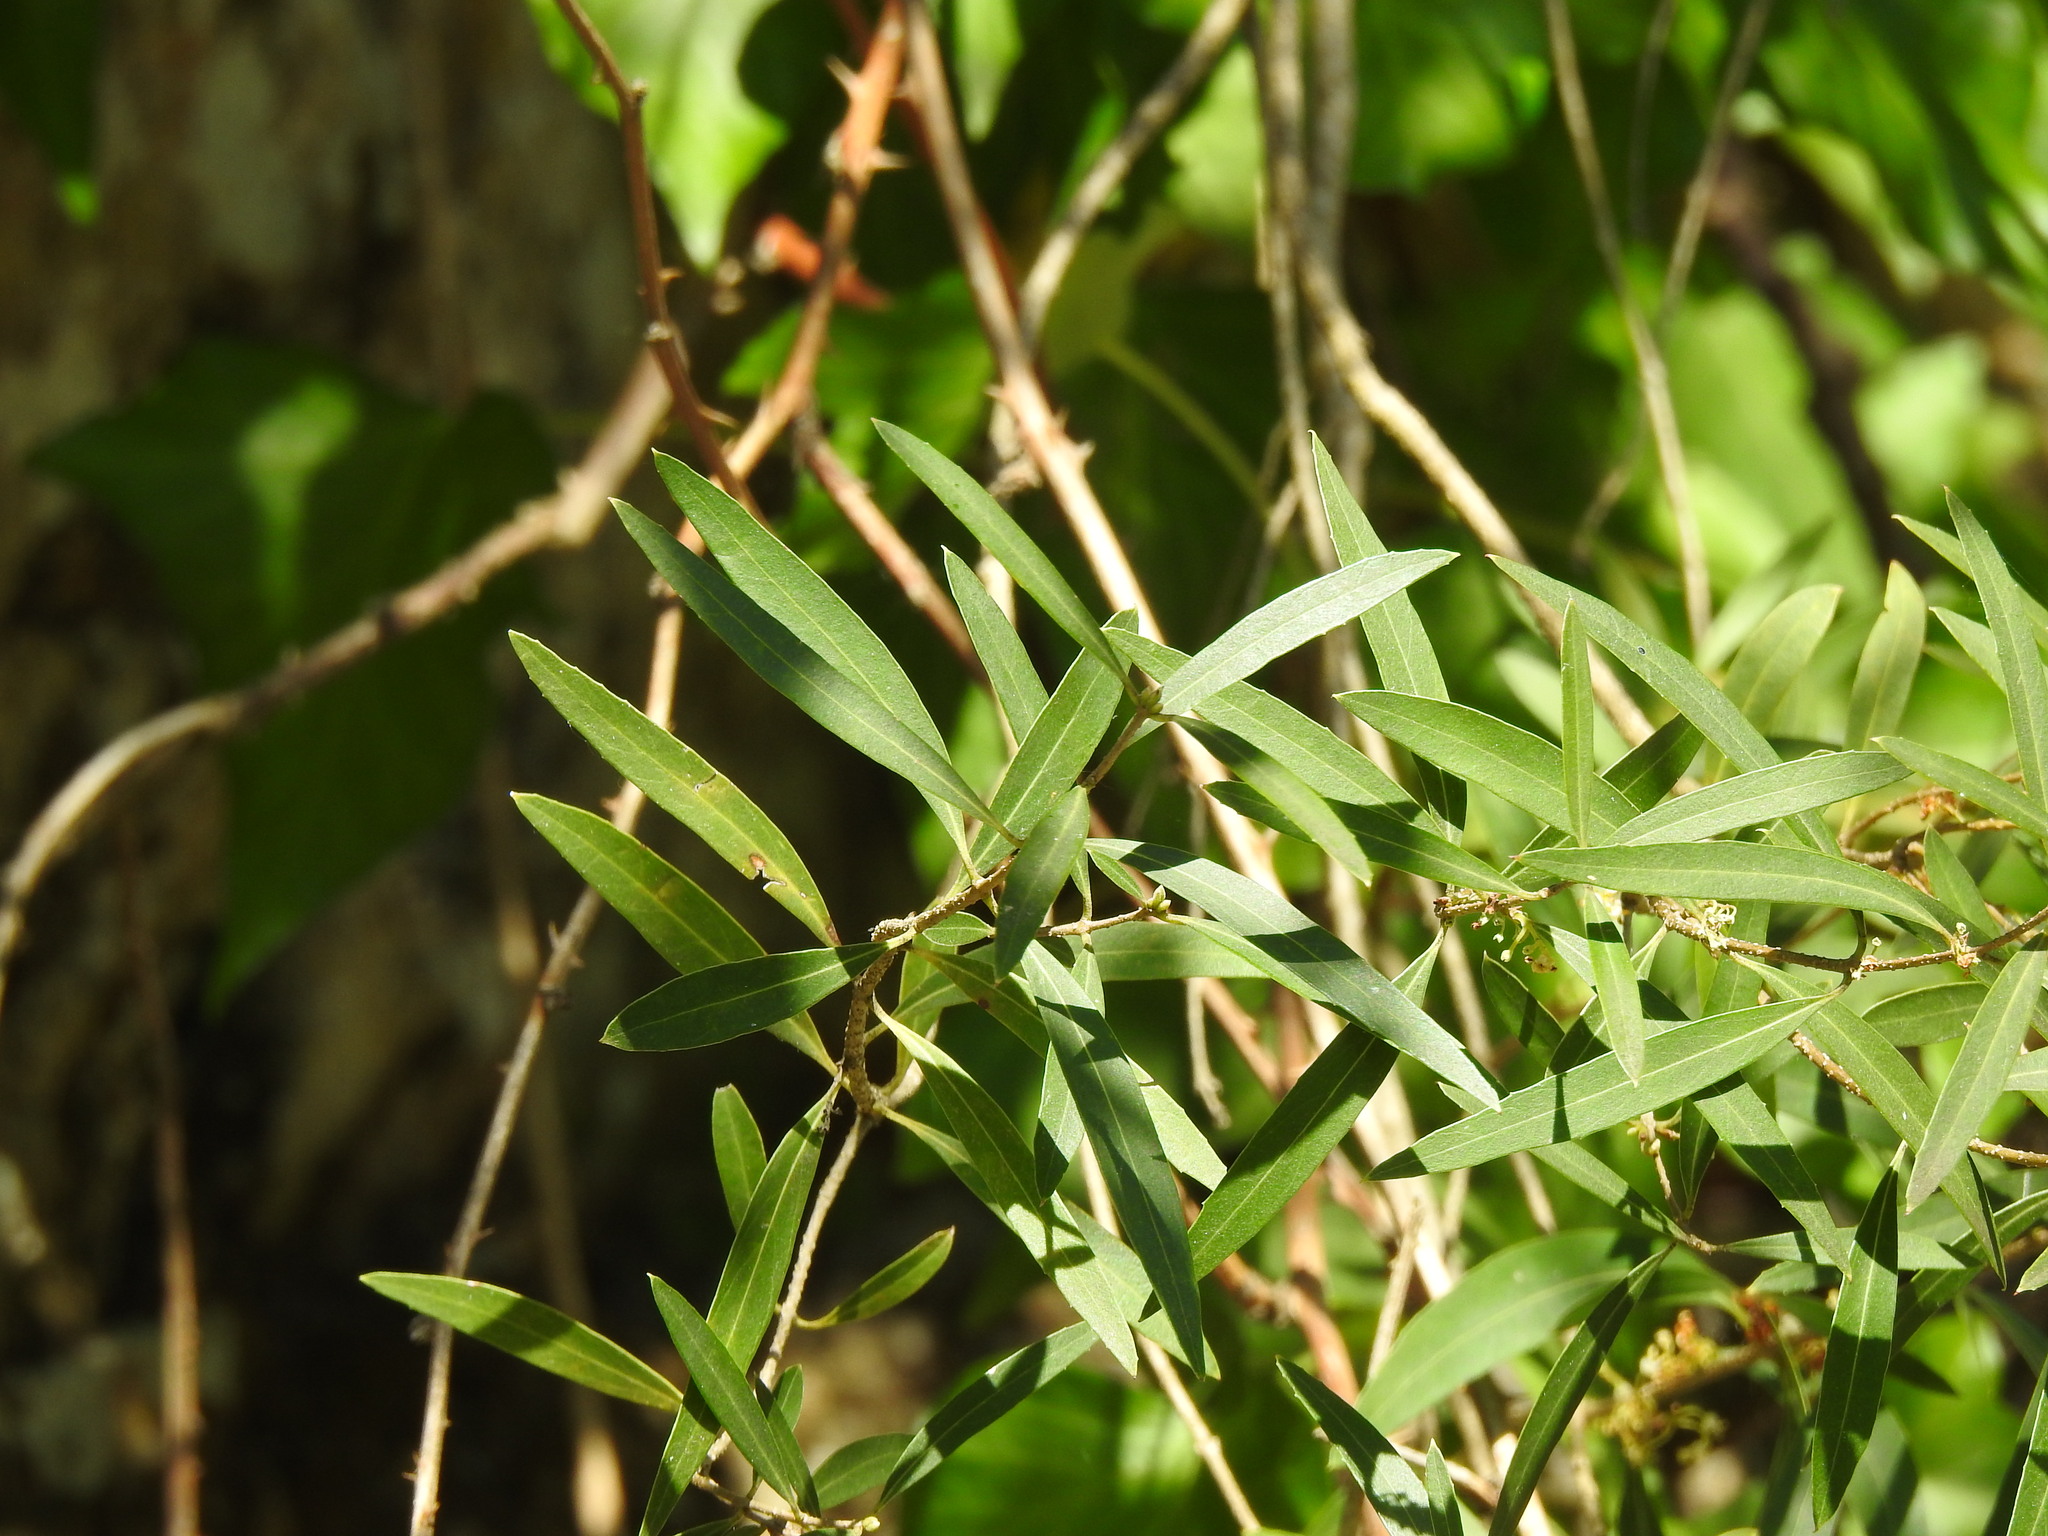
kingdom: Plantae
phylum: Tracheophyta
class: Magnoliopsida
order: Lamiales
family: Oleaceae
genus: Phillyrea
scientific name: Phillyrea angustifolia
